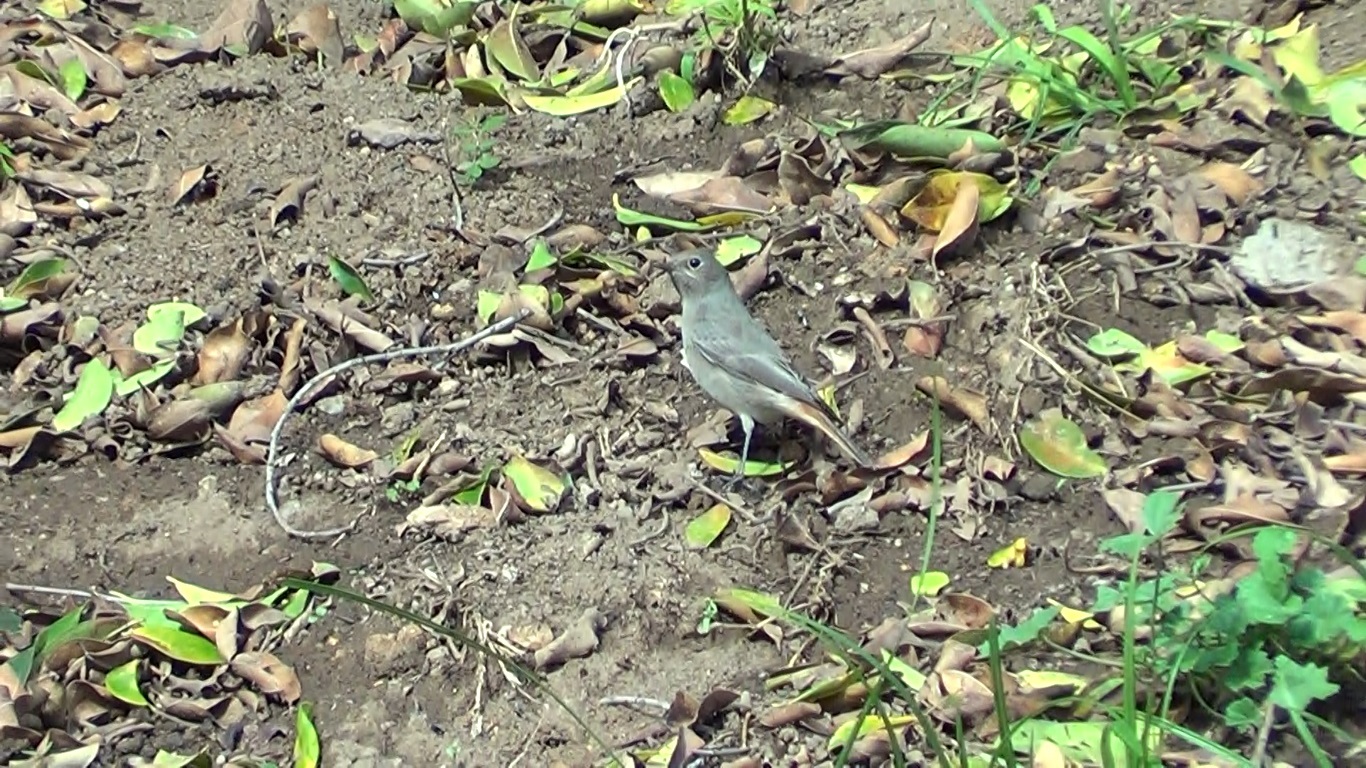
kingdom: Animalia
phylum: Chordata
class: Aves
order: Passeriformes
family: Muscicapidae
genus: Phoenicurus
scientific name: Phoenicurus ochruros
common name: Black redstart
